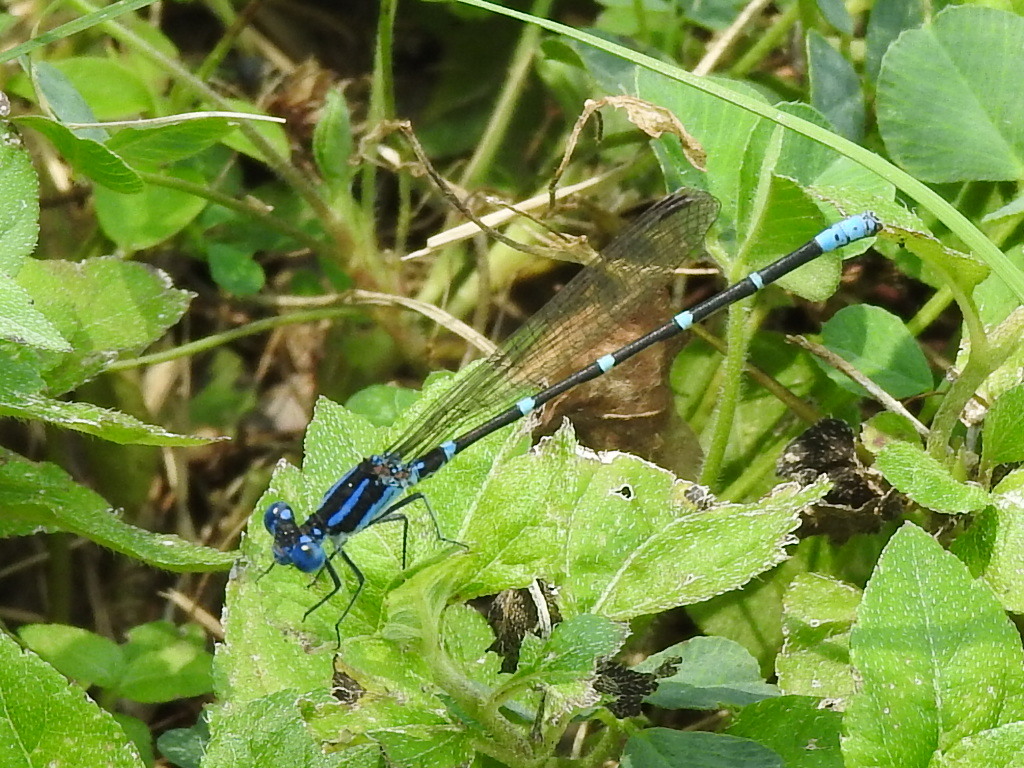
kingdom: Animalia
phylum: Arthropoda
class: Insecta
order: Odonata
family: Coenagrionidae
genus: Argia
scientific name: Argia sedula
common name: Blue-ringed dancer
